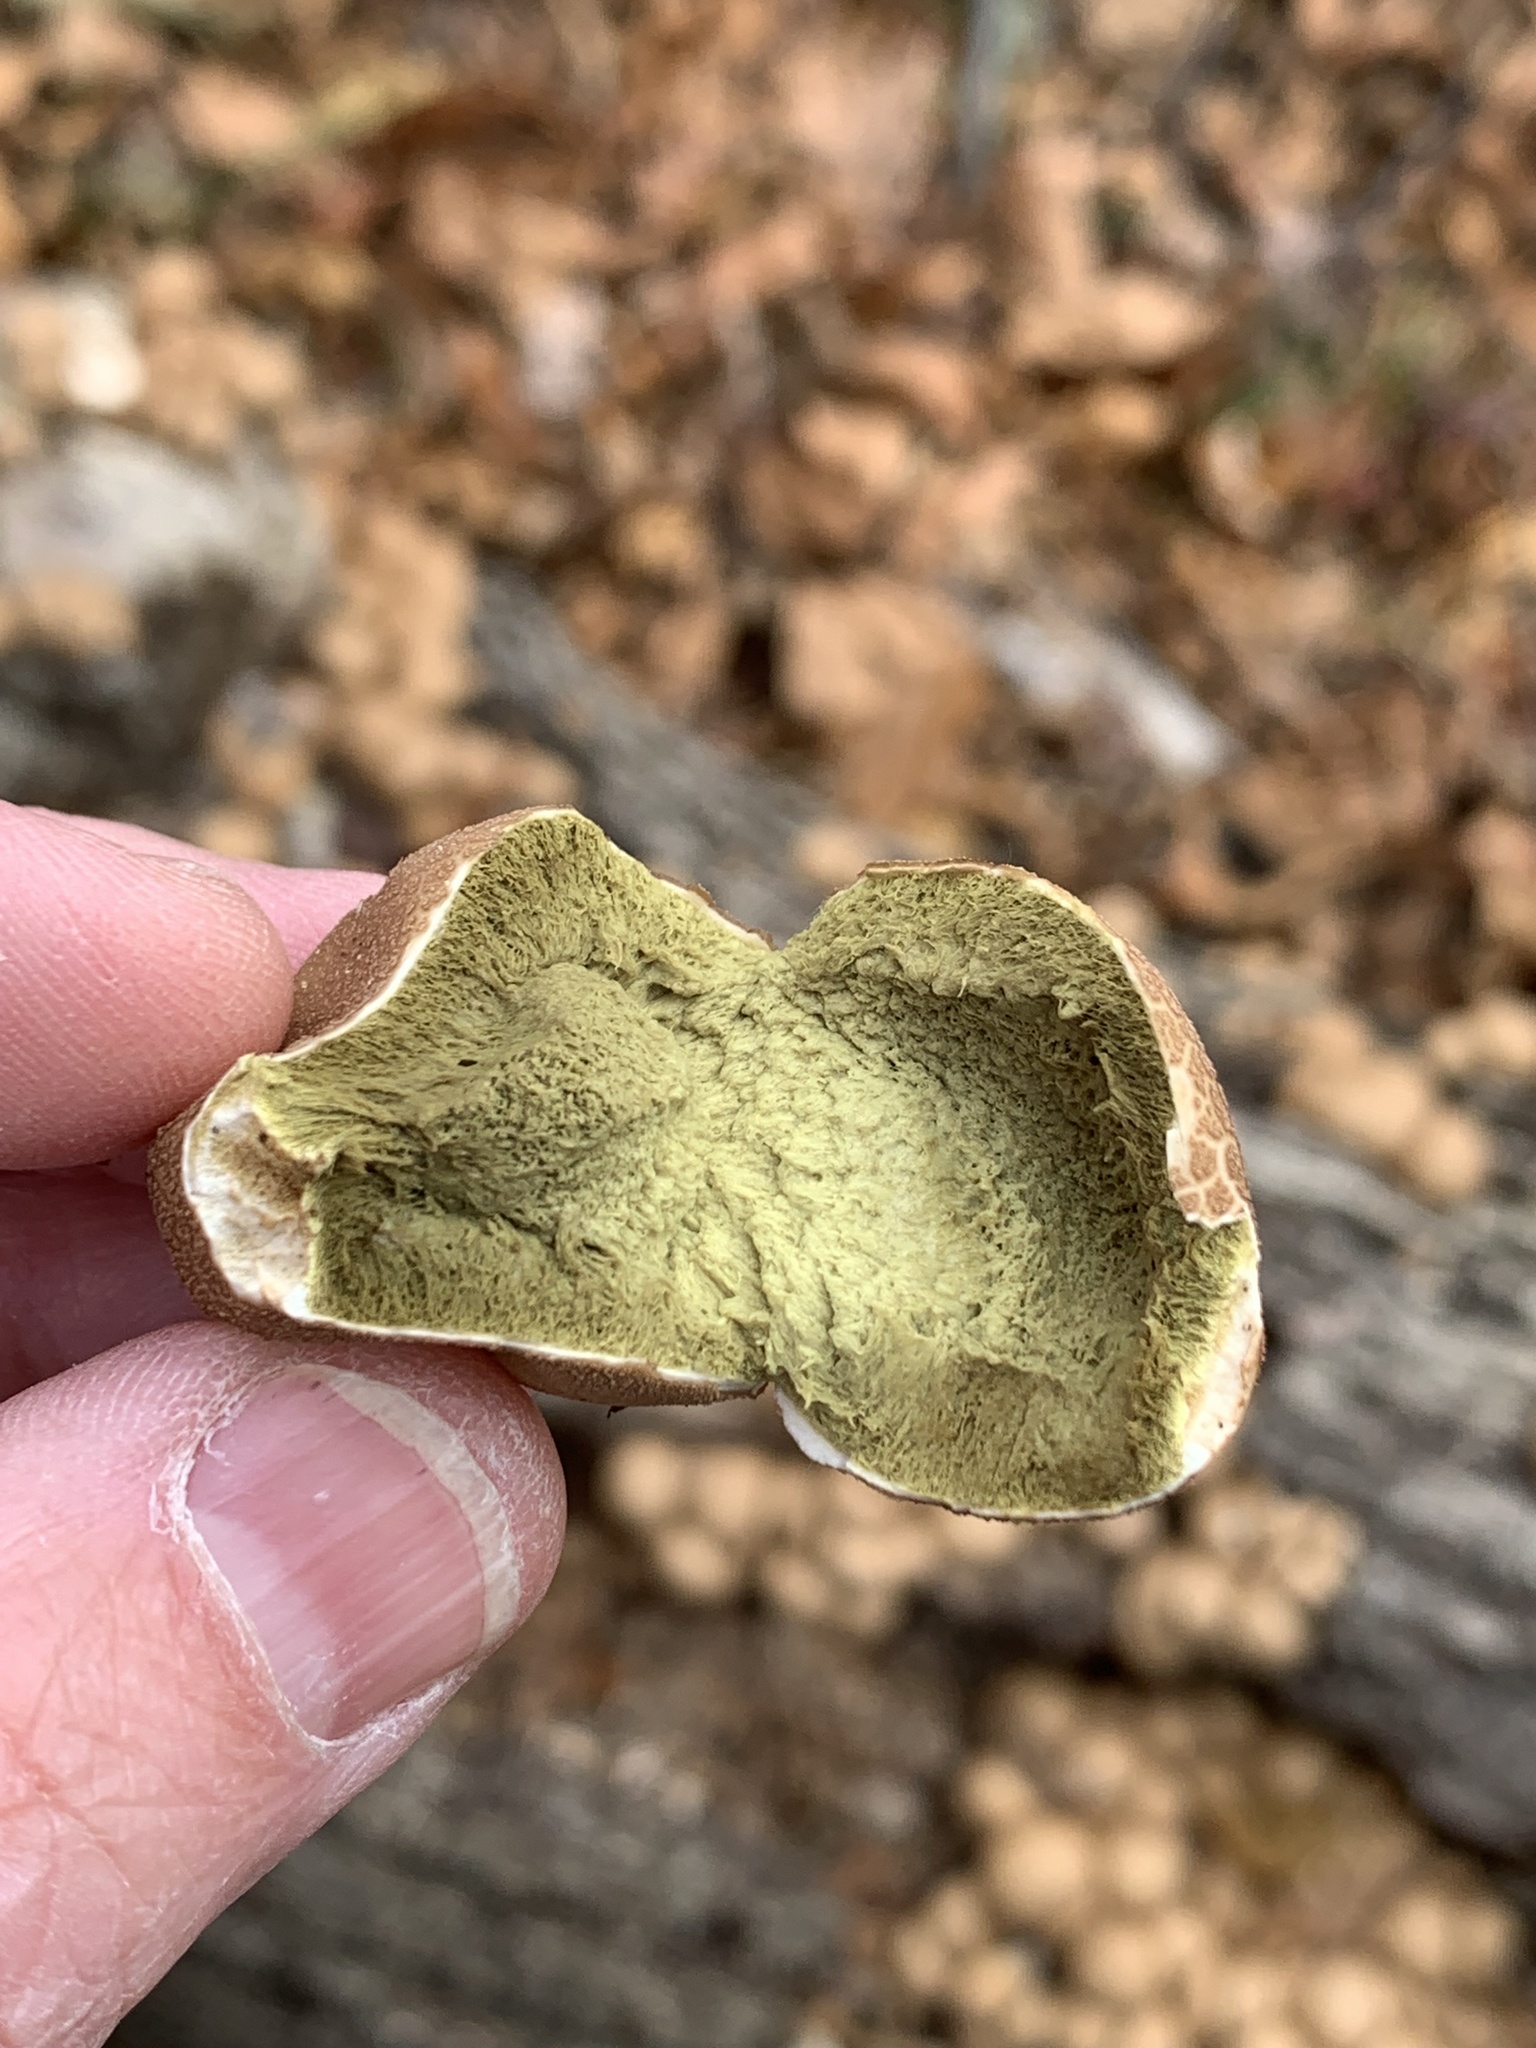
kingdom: Fungi
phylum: Basidiomycota
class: Agaricomycetes
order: Agaricales
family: Lycoperdaceae
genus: Apioperdon
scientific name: Apioperdon pyriforme
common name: Pear-shaped puffball
